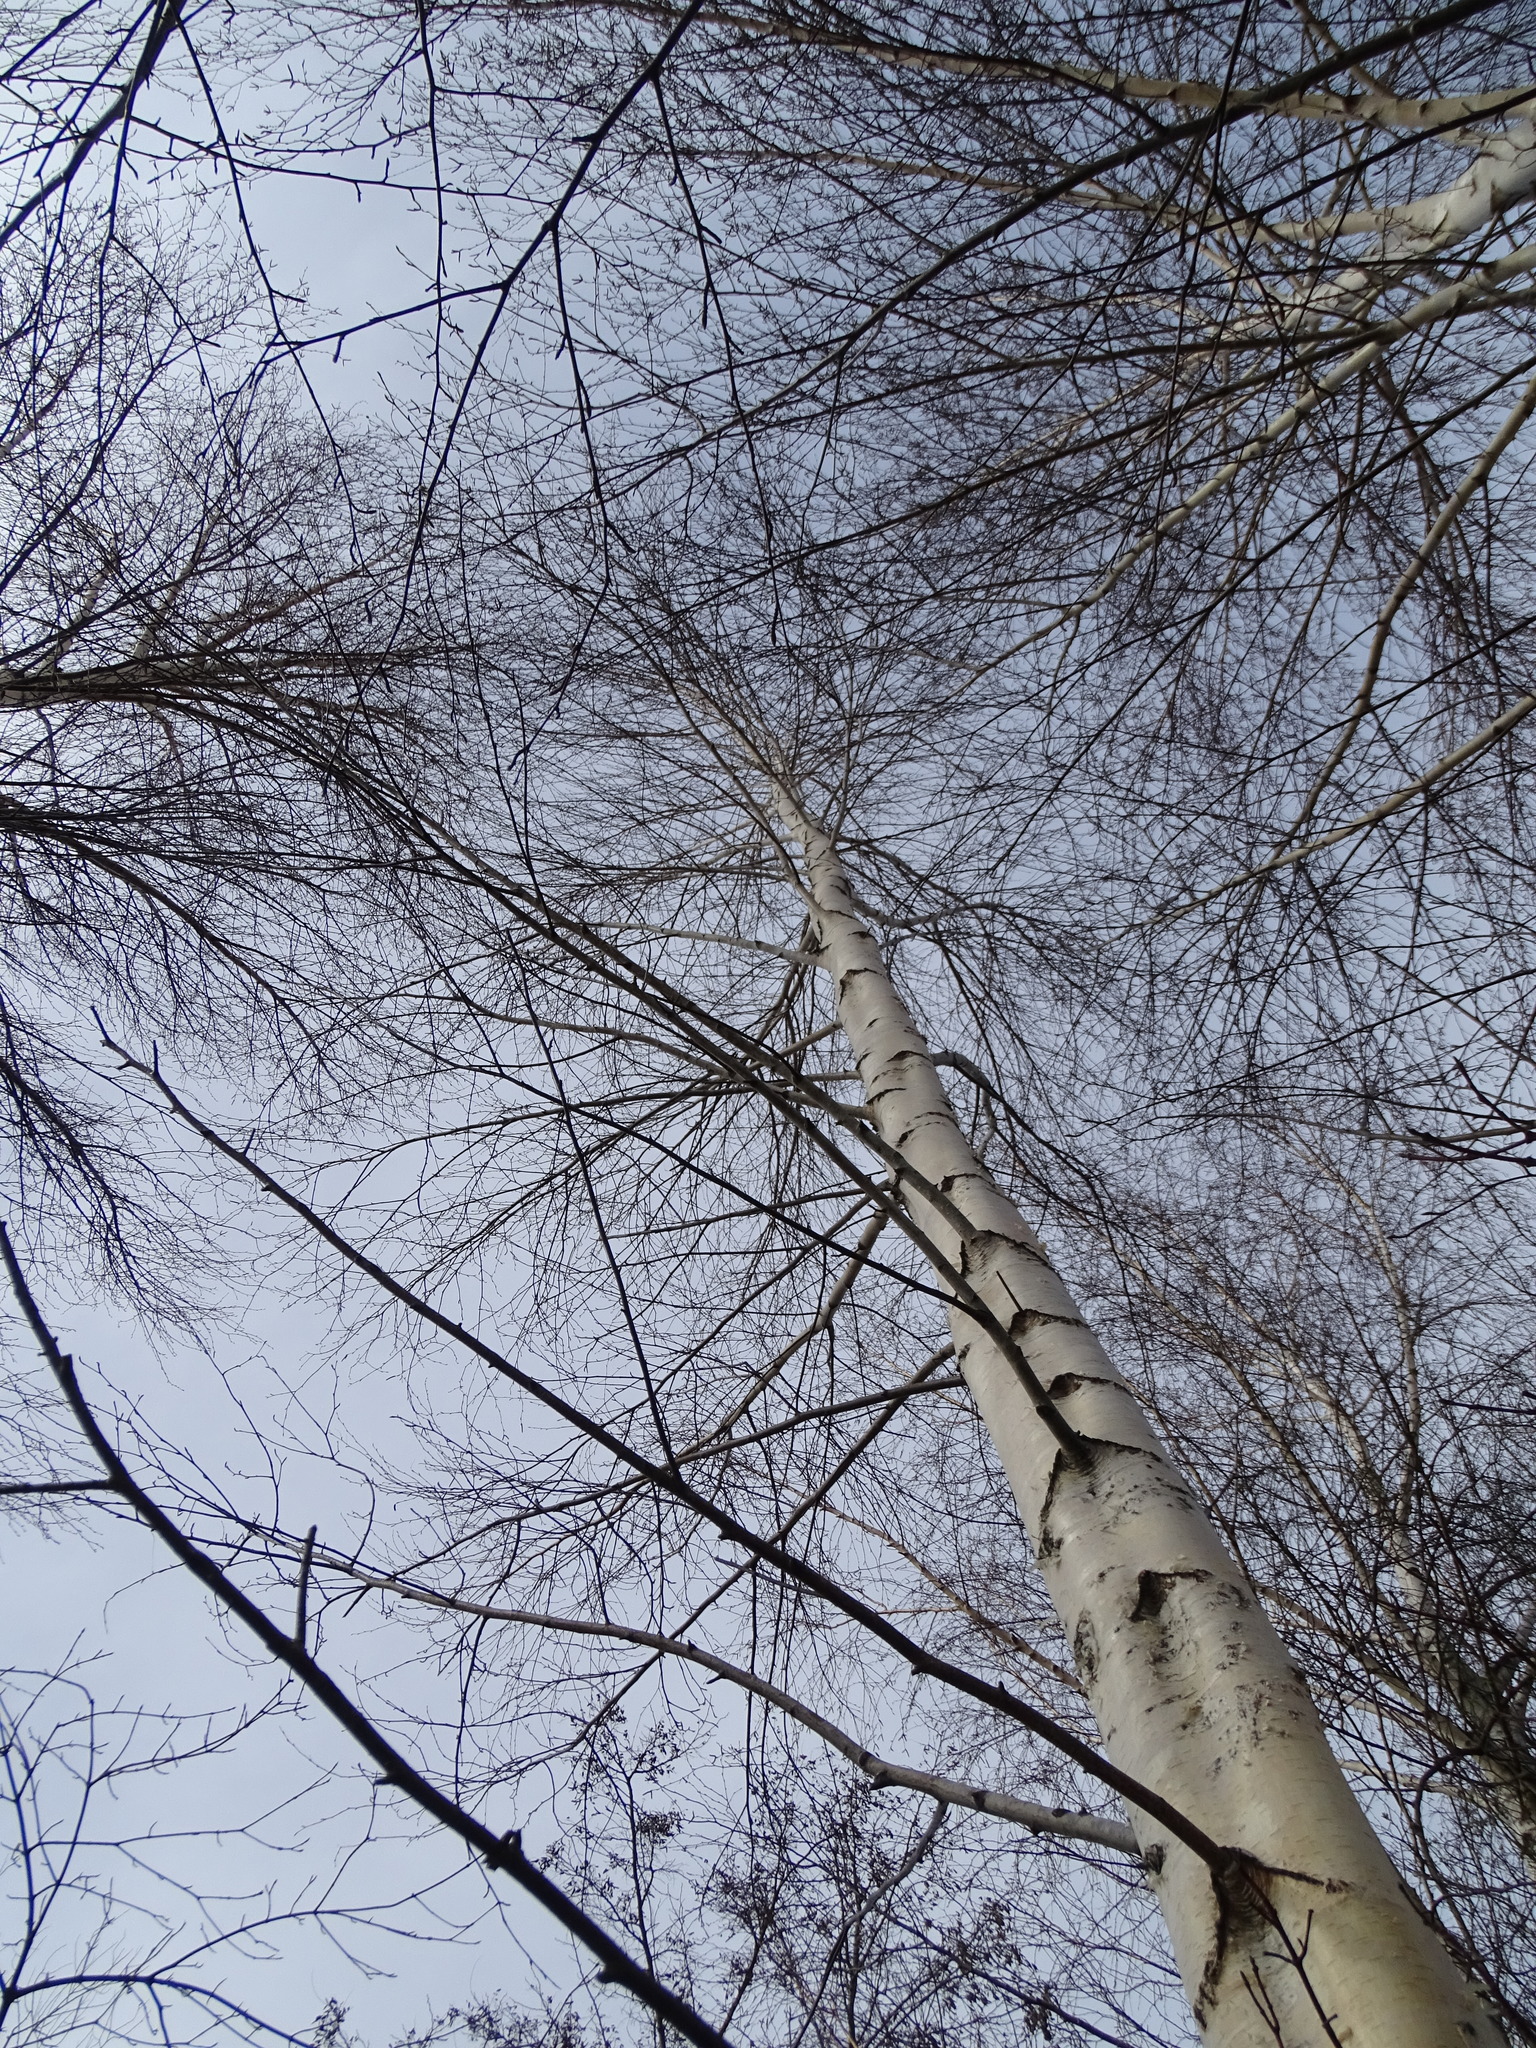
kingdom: Plantae
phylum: Tracheophyta
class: Magnoliopsida
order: Fagales
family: Betulaceae
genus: Betula
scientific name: Betula pendula
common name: Silver birch
